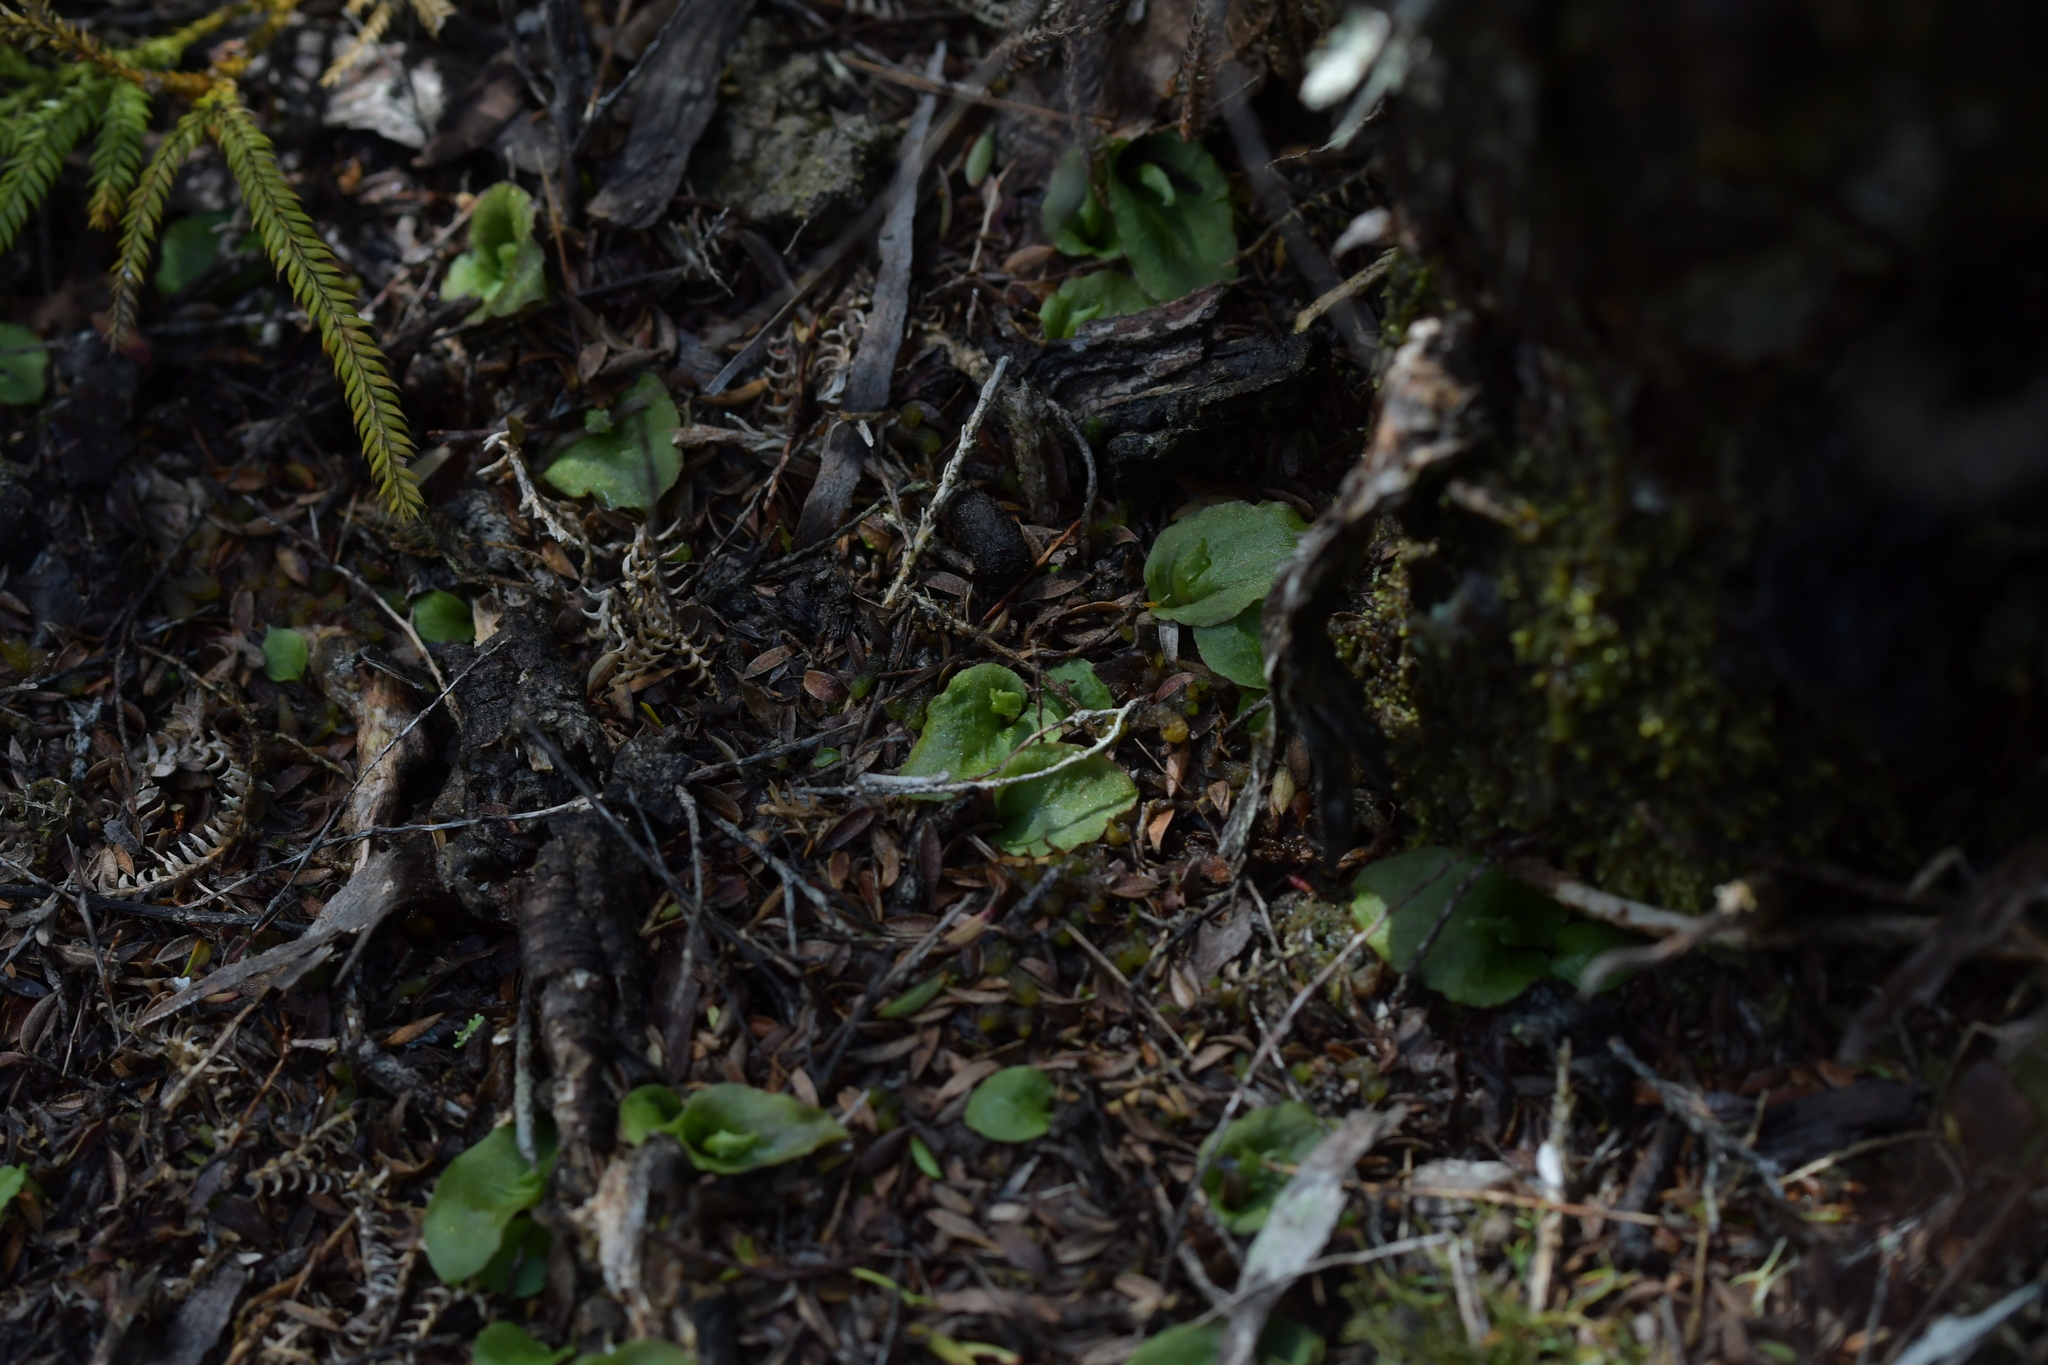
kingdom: Plantae
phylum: Tracheophyta
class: Liliopsida
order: Asparagales
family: Orchidaceae
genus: Corybas
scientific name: Corybas oblongus
